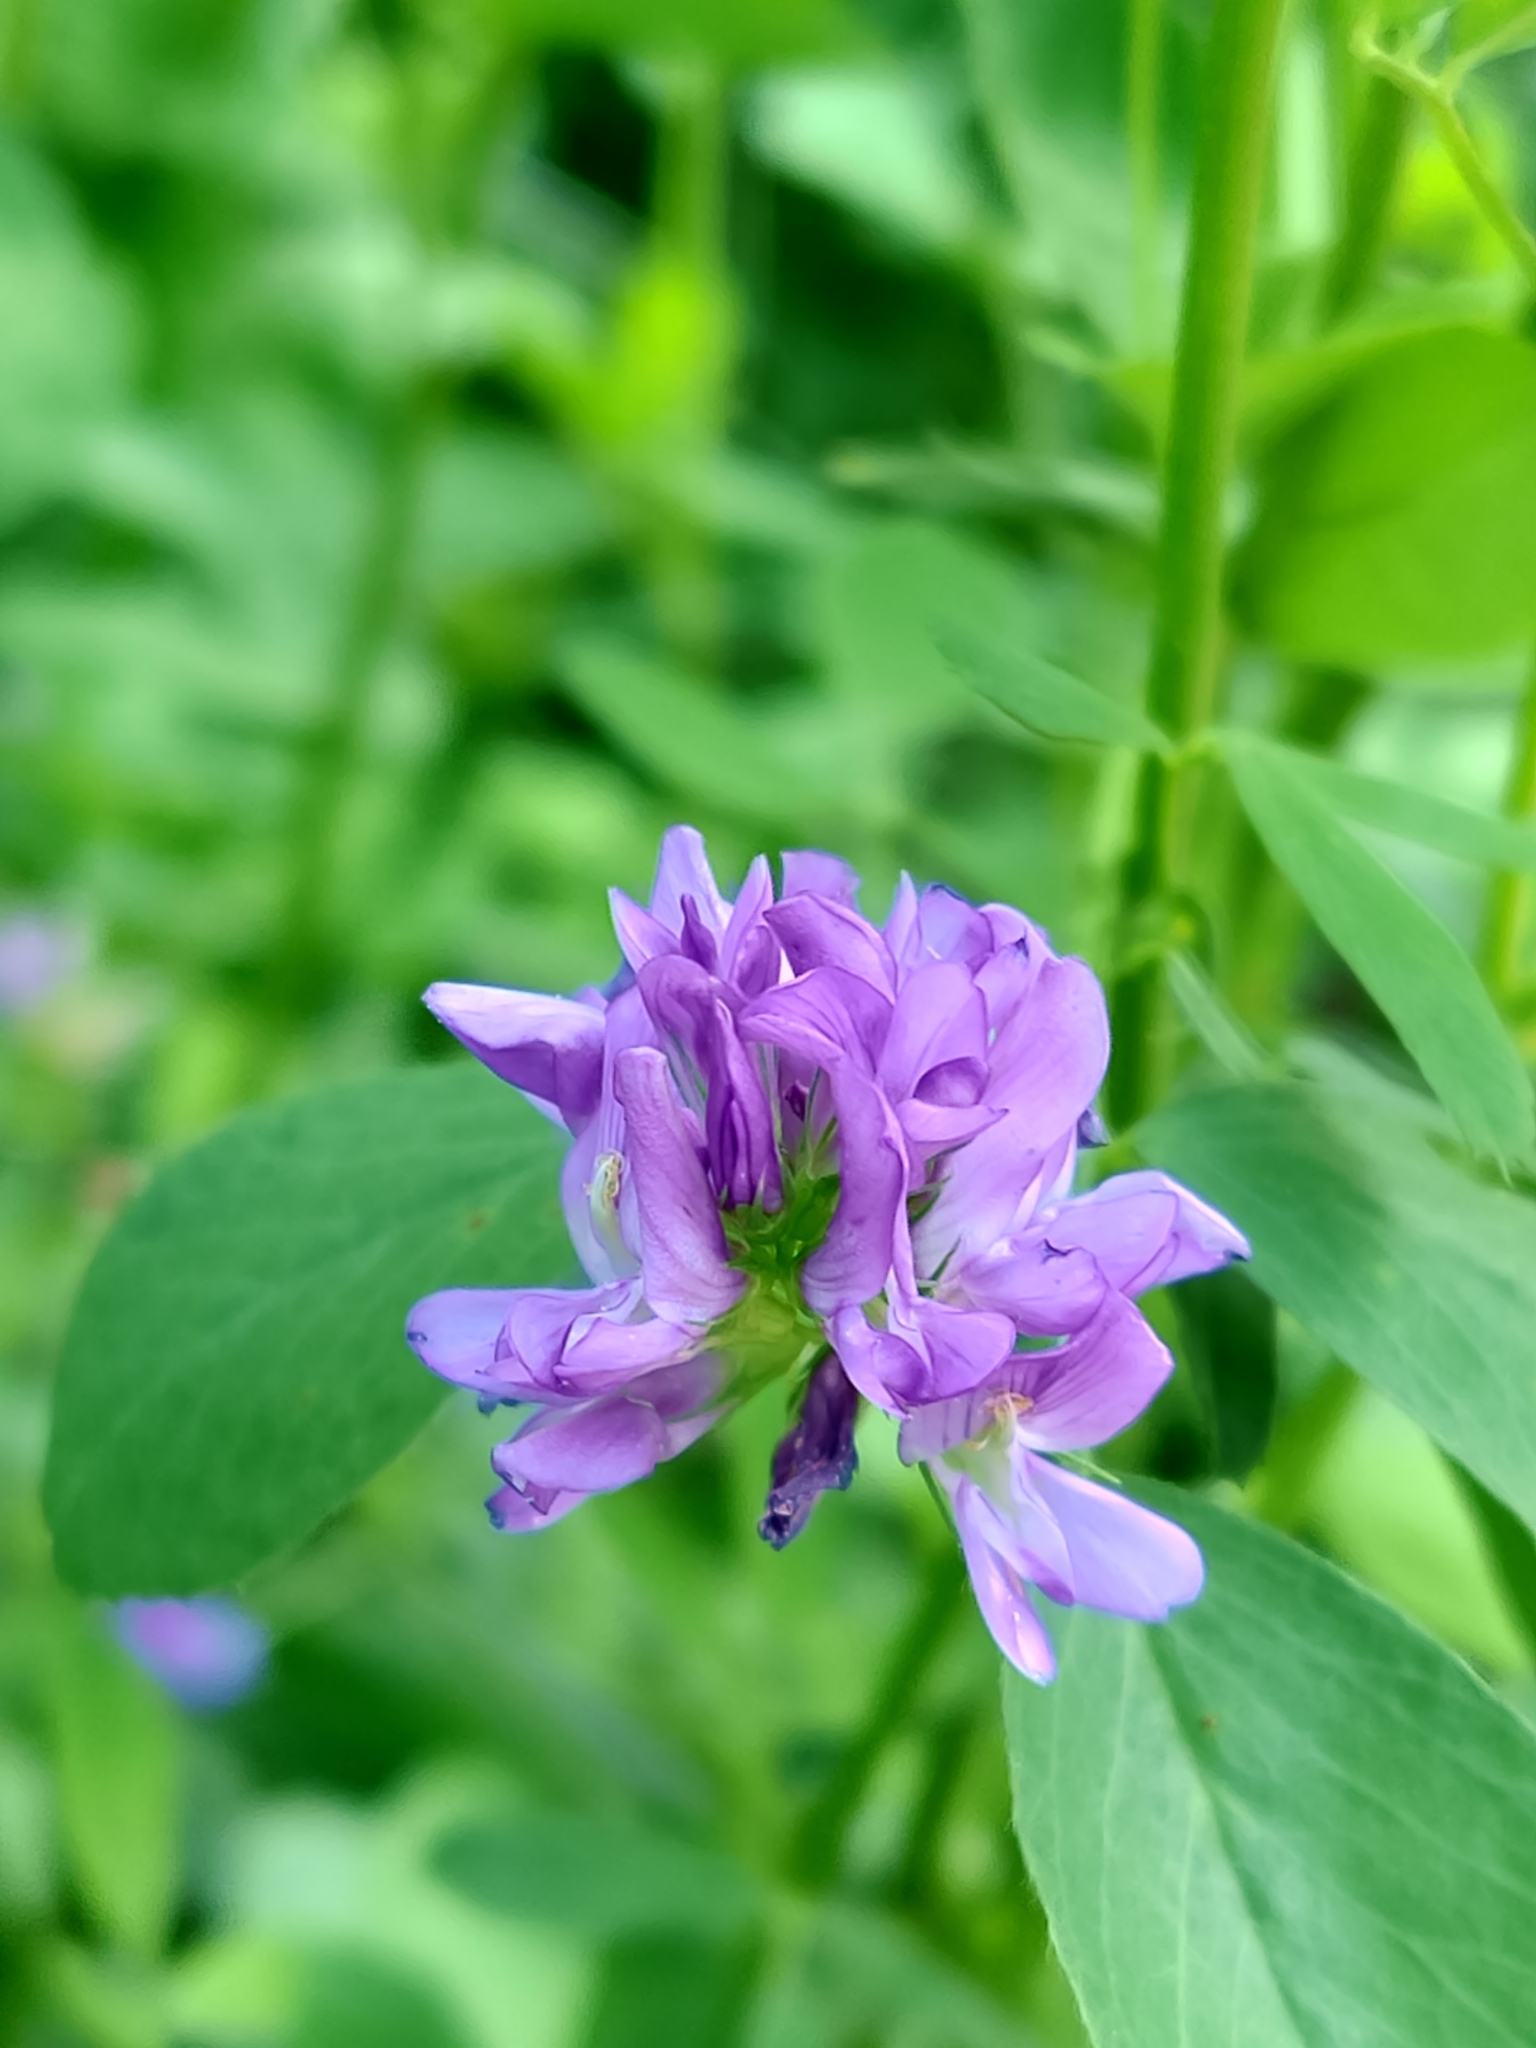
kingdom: Plantae
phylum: Tracheophyta
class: Magnoliopsida
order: Fabales
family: Fabaceae
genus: Medicago
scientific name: Medicago sativa
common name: Alfalfa
